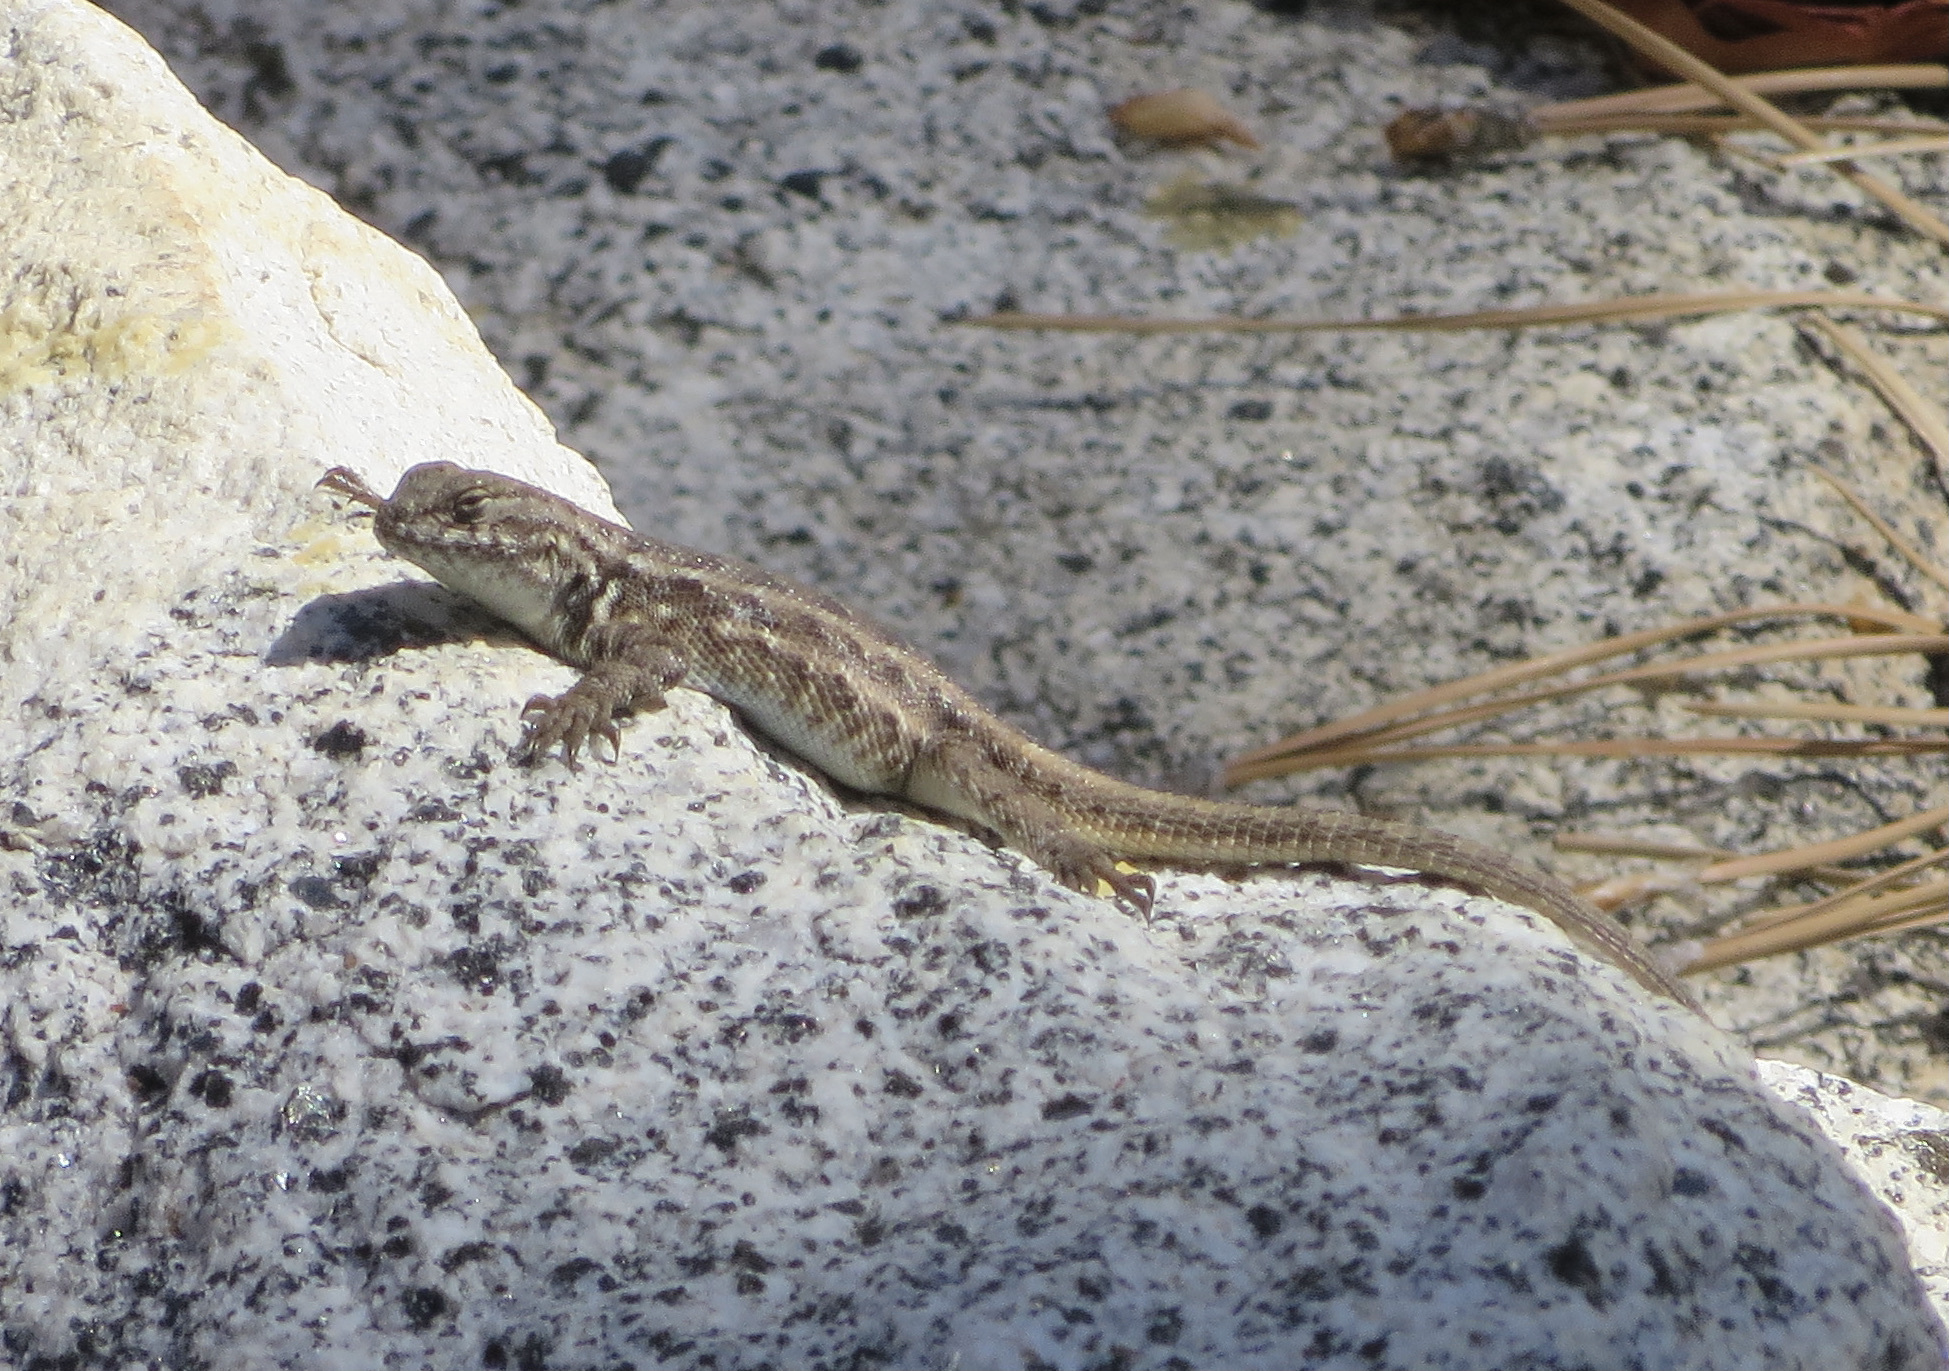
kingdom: Animalia
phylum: Chordata
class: Squamata
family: Phrynosomatidae
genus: Sceloporus
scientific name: Sceloporus graciosus
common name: Sagebrush lizard
